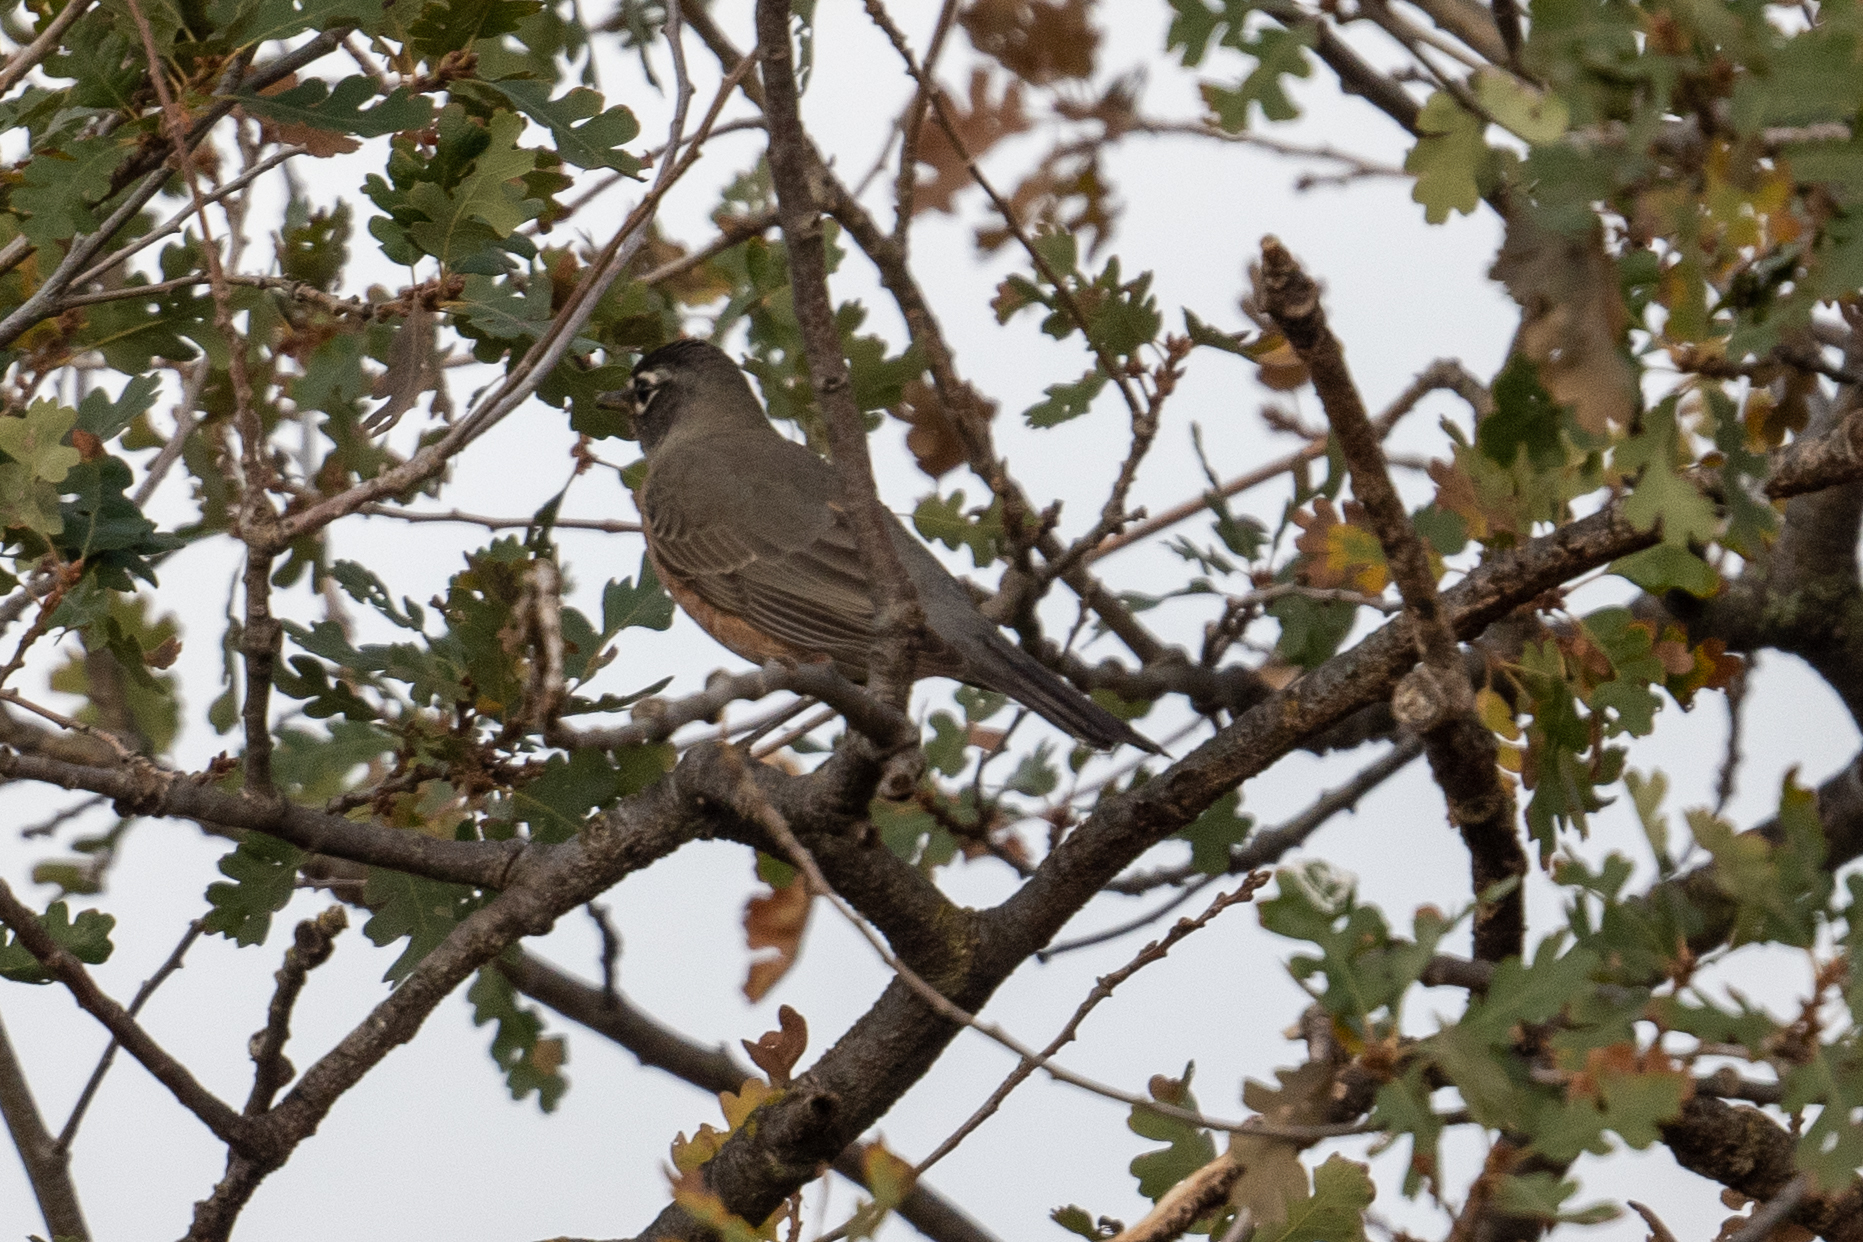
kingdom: Animalia
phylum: Chordata
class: Aves
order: Passeriformes
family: Turdidae
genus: Turdus
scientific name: Turdus migratorius
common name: American robin
